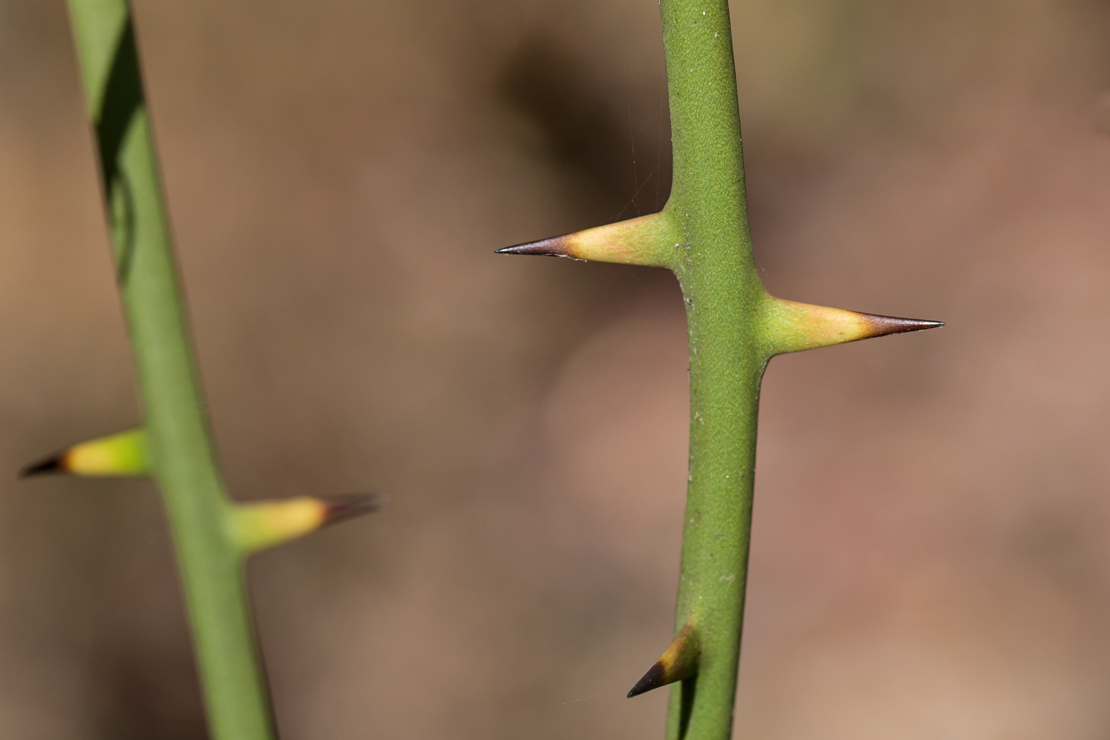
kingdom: Plantae
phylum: Tracheophyta
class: Liliopsida
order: Liliales
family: Smilacaceae
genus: Smilax
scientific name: Smilax rotundifolia
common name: Bullbriar
